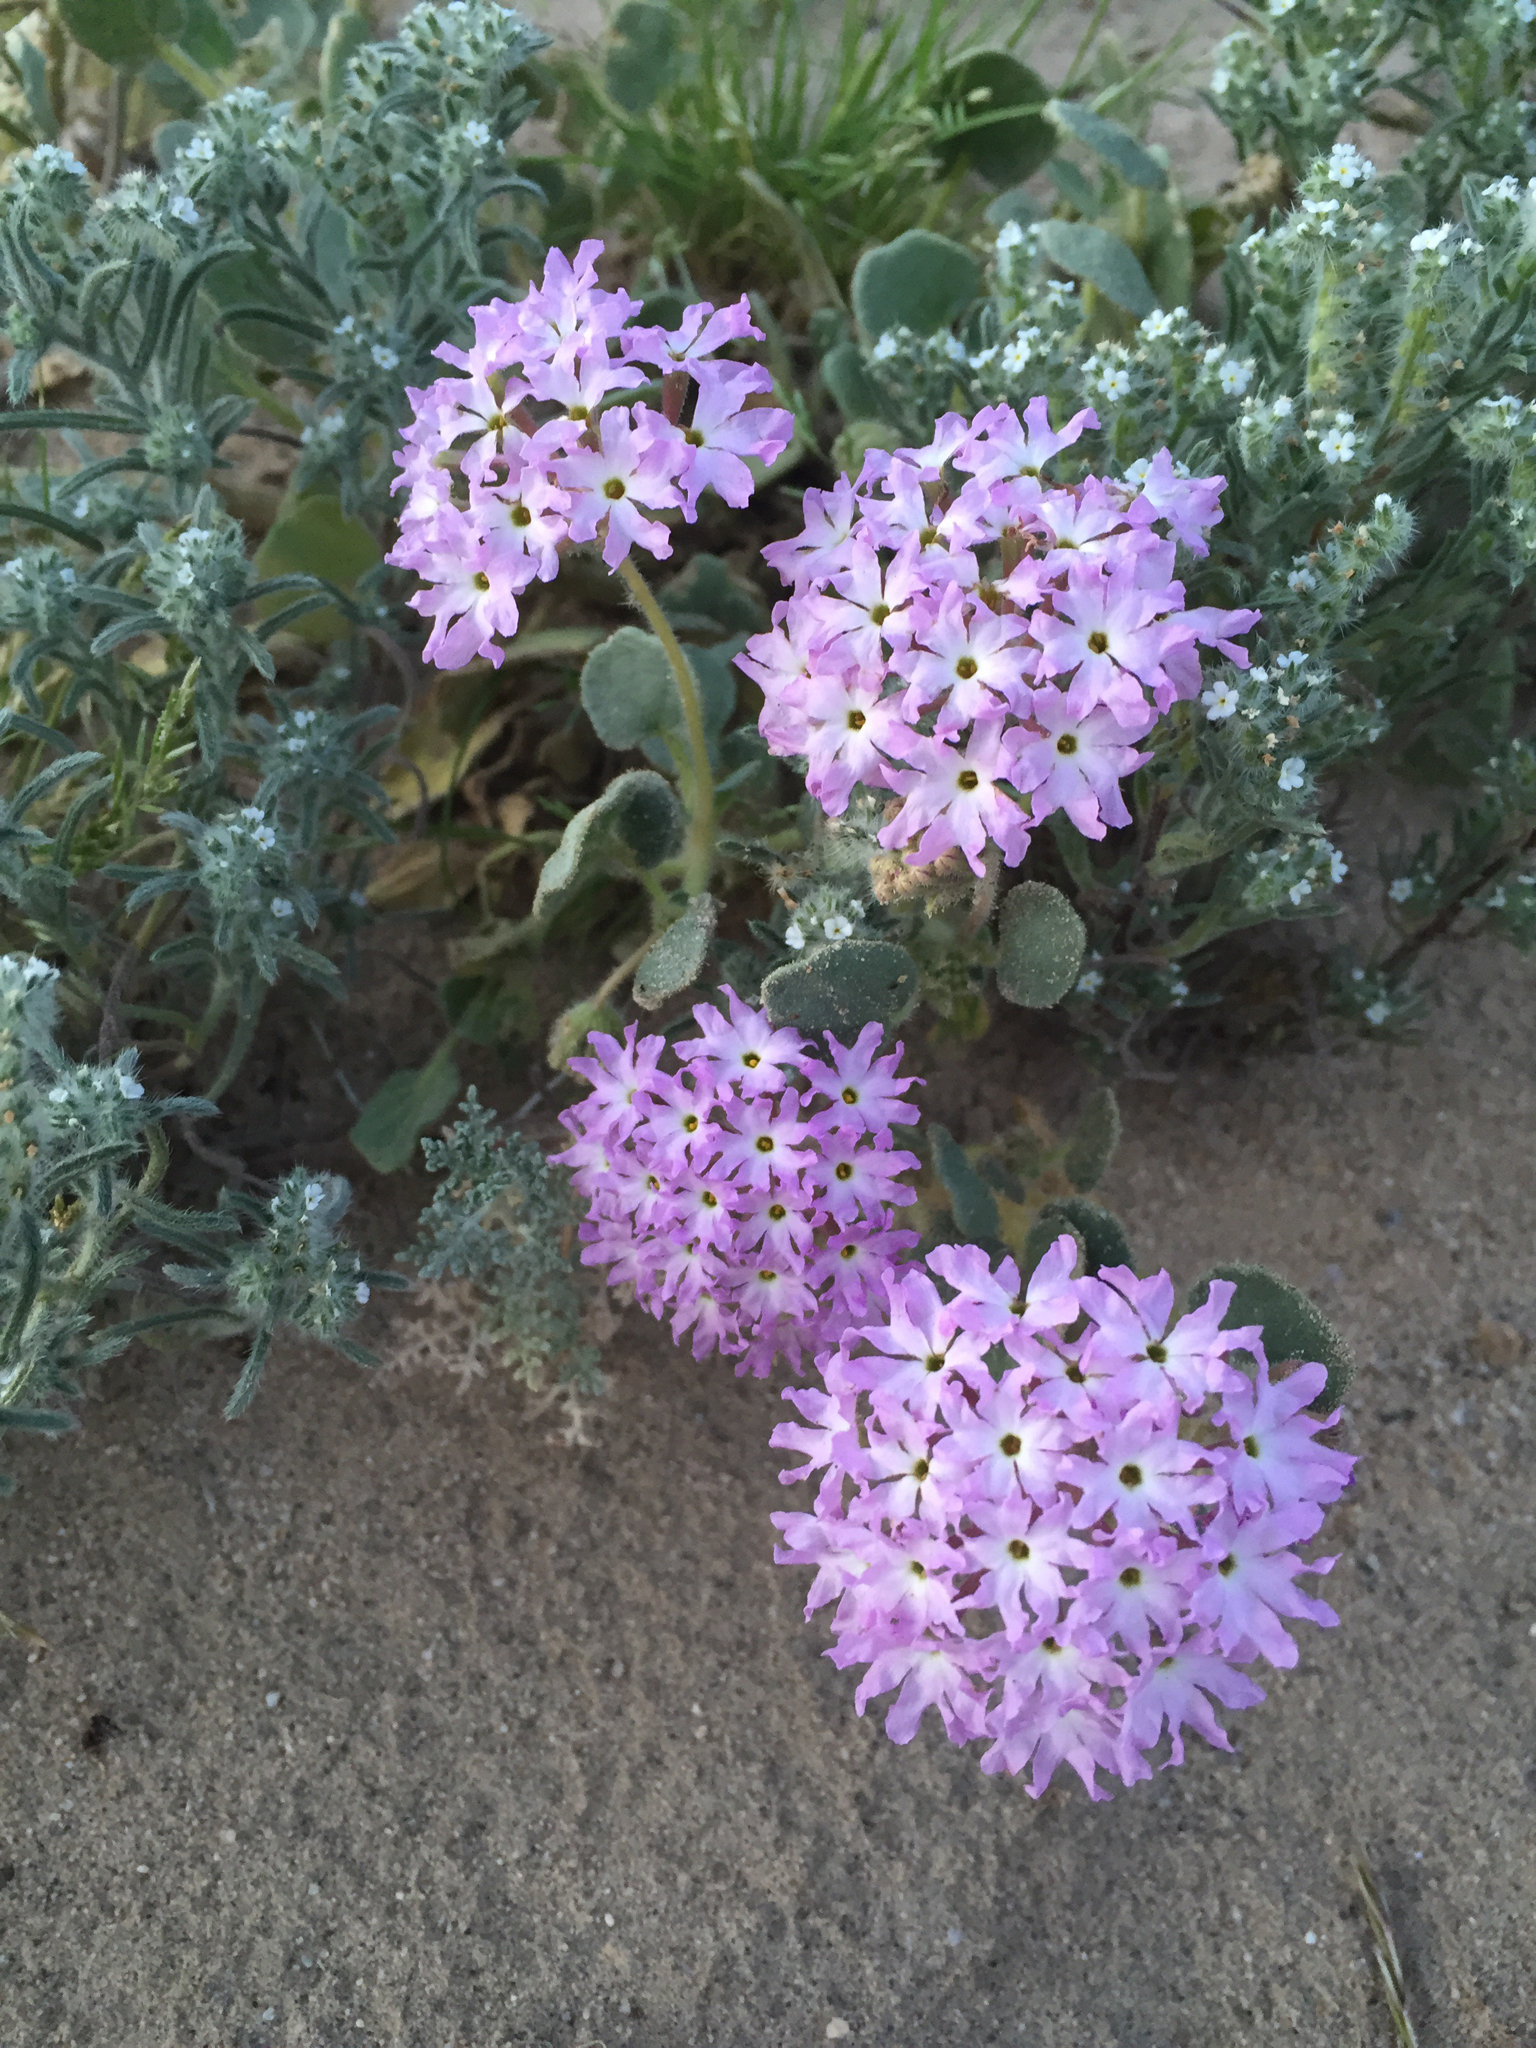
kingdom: Plantae
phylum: Tracheophyta
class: Magnoliopsida
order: Caryophyllales
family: Nyctaginaceae
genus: Abronia
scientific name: Abronia villosa
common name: Desert sand-verbena
